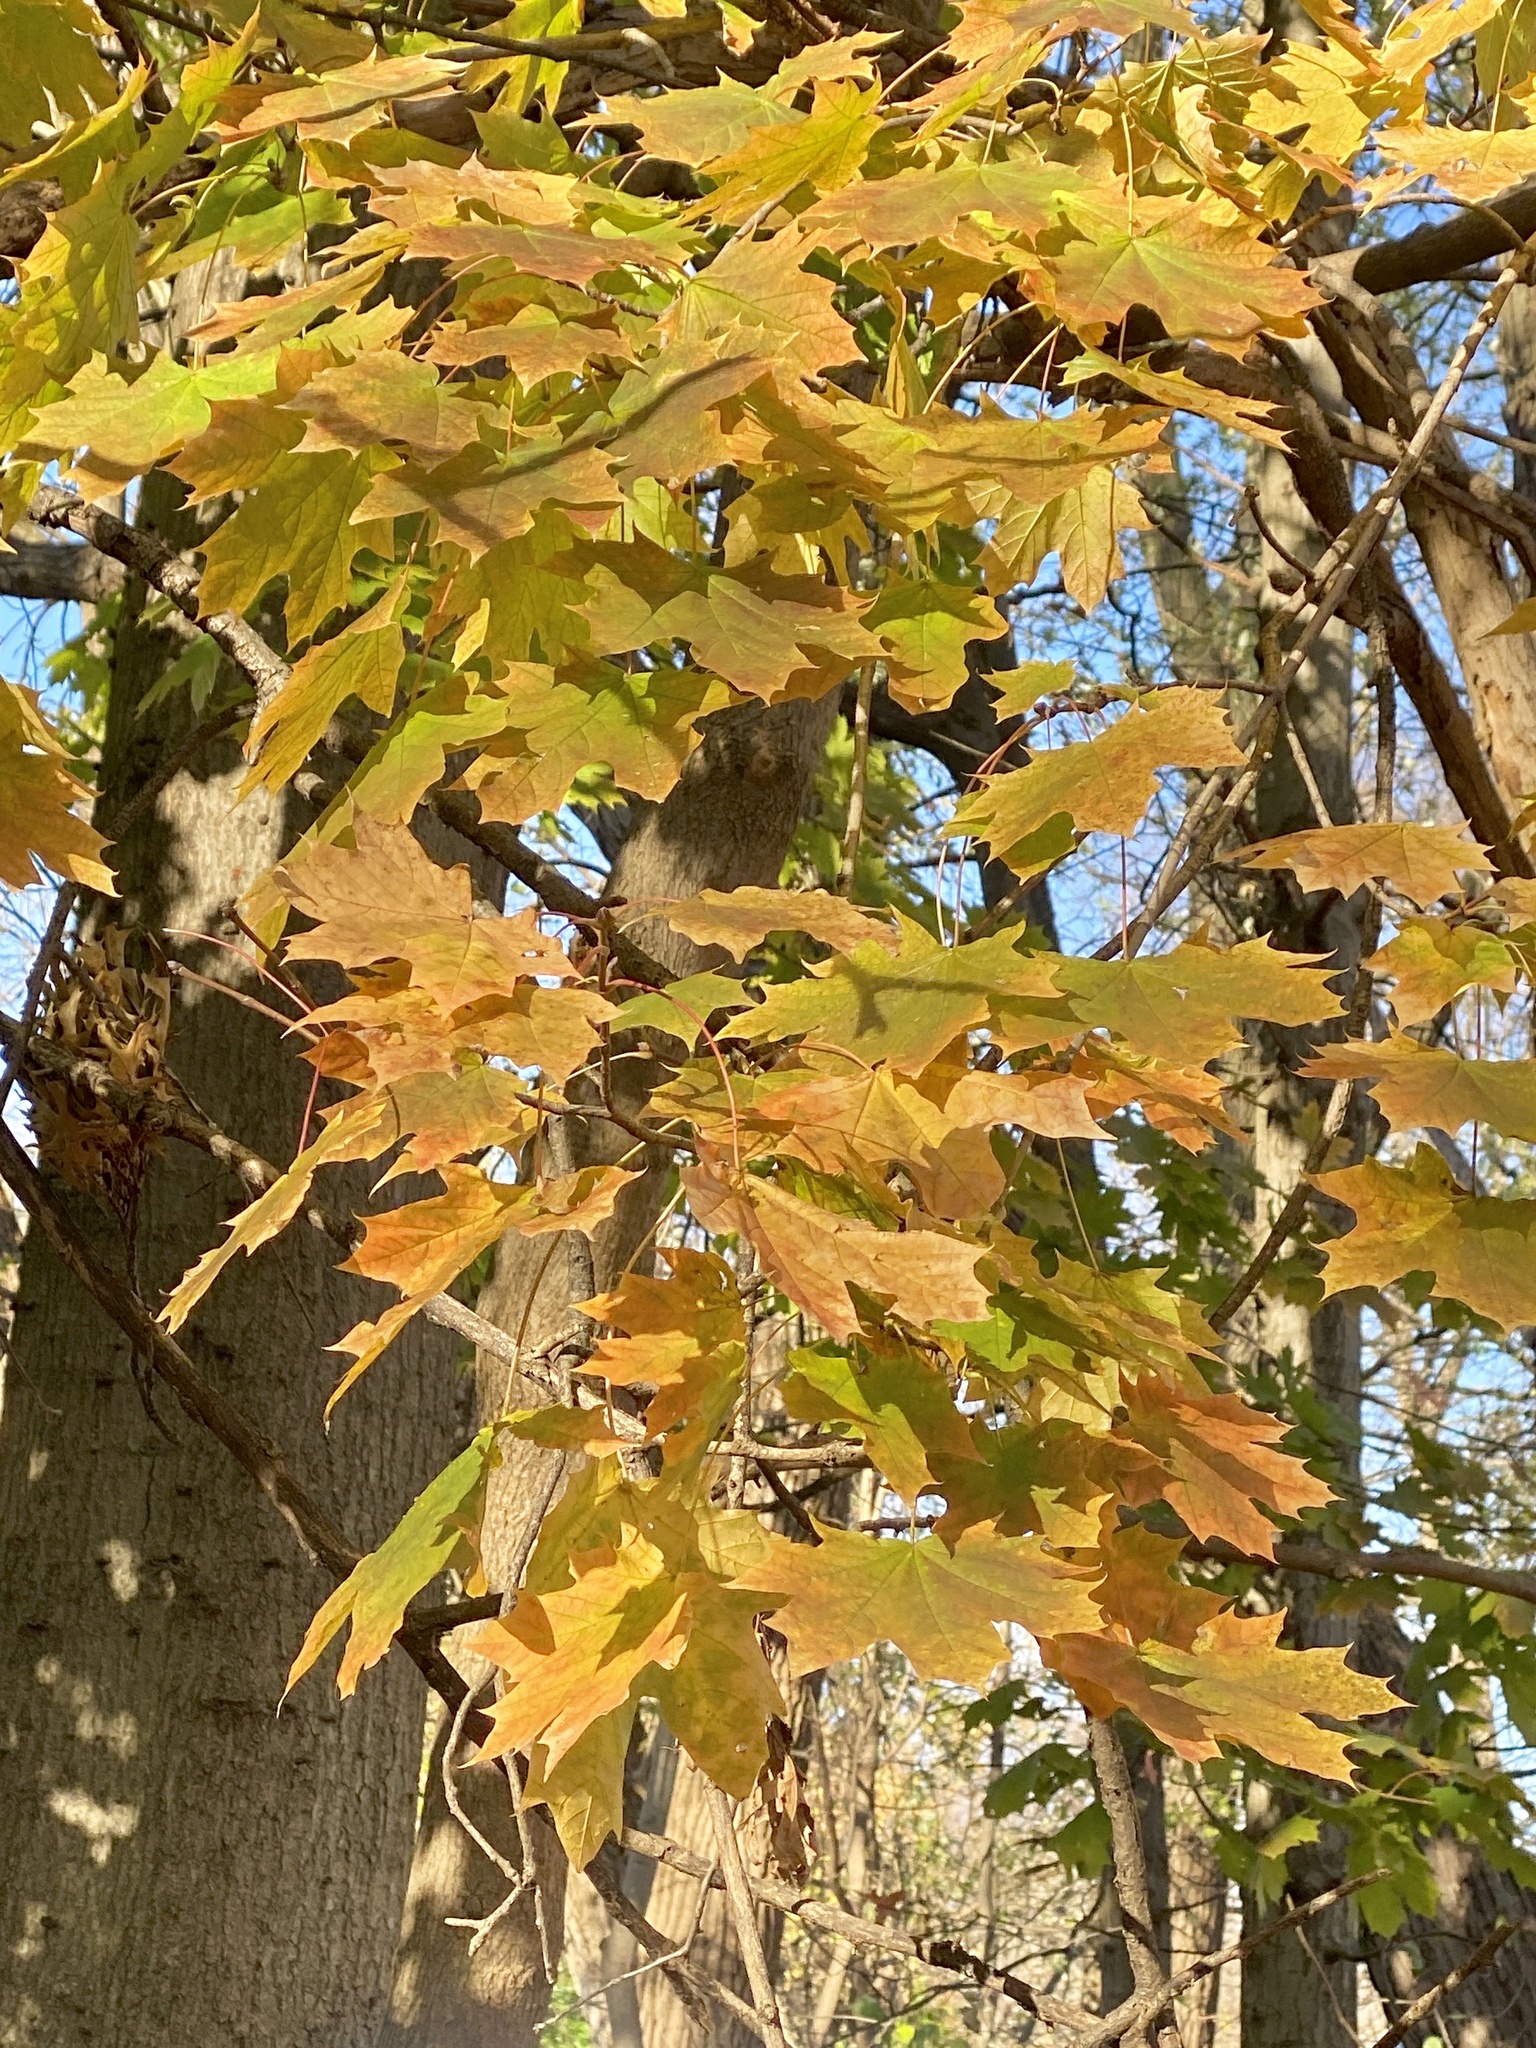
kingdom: Plantae
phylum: Tracheophyta
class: Magnoliopsida
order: Sapindales
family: Sapindaceae
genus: Acer
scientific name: Acer platanoides
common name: Norway maple
